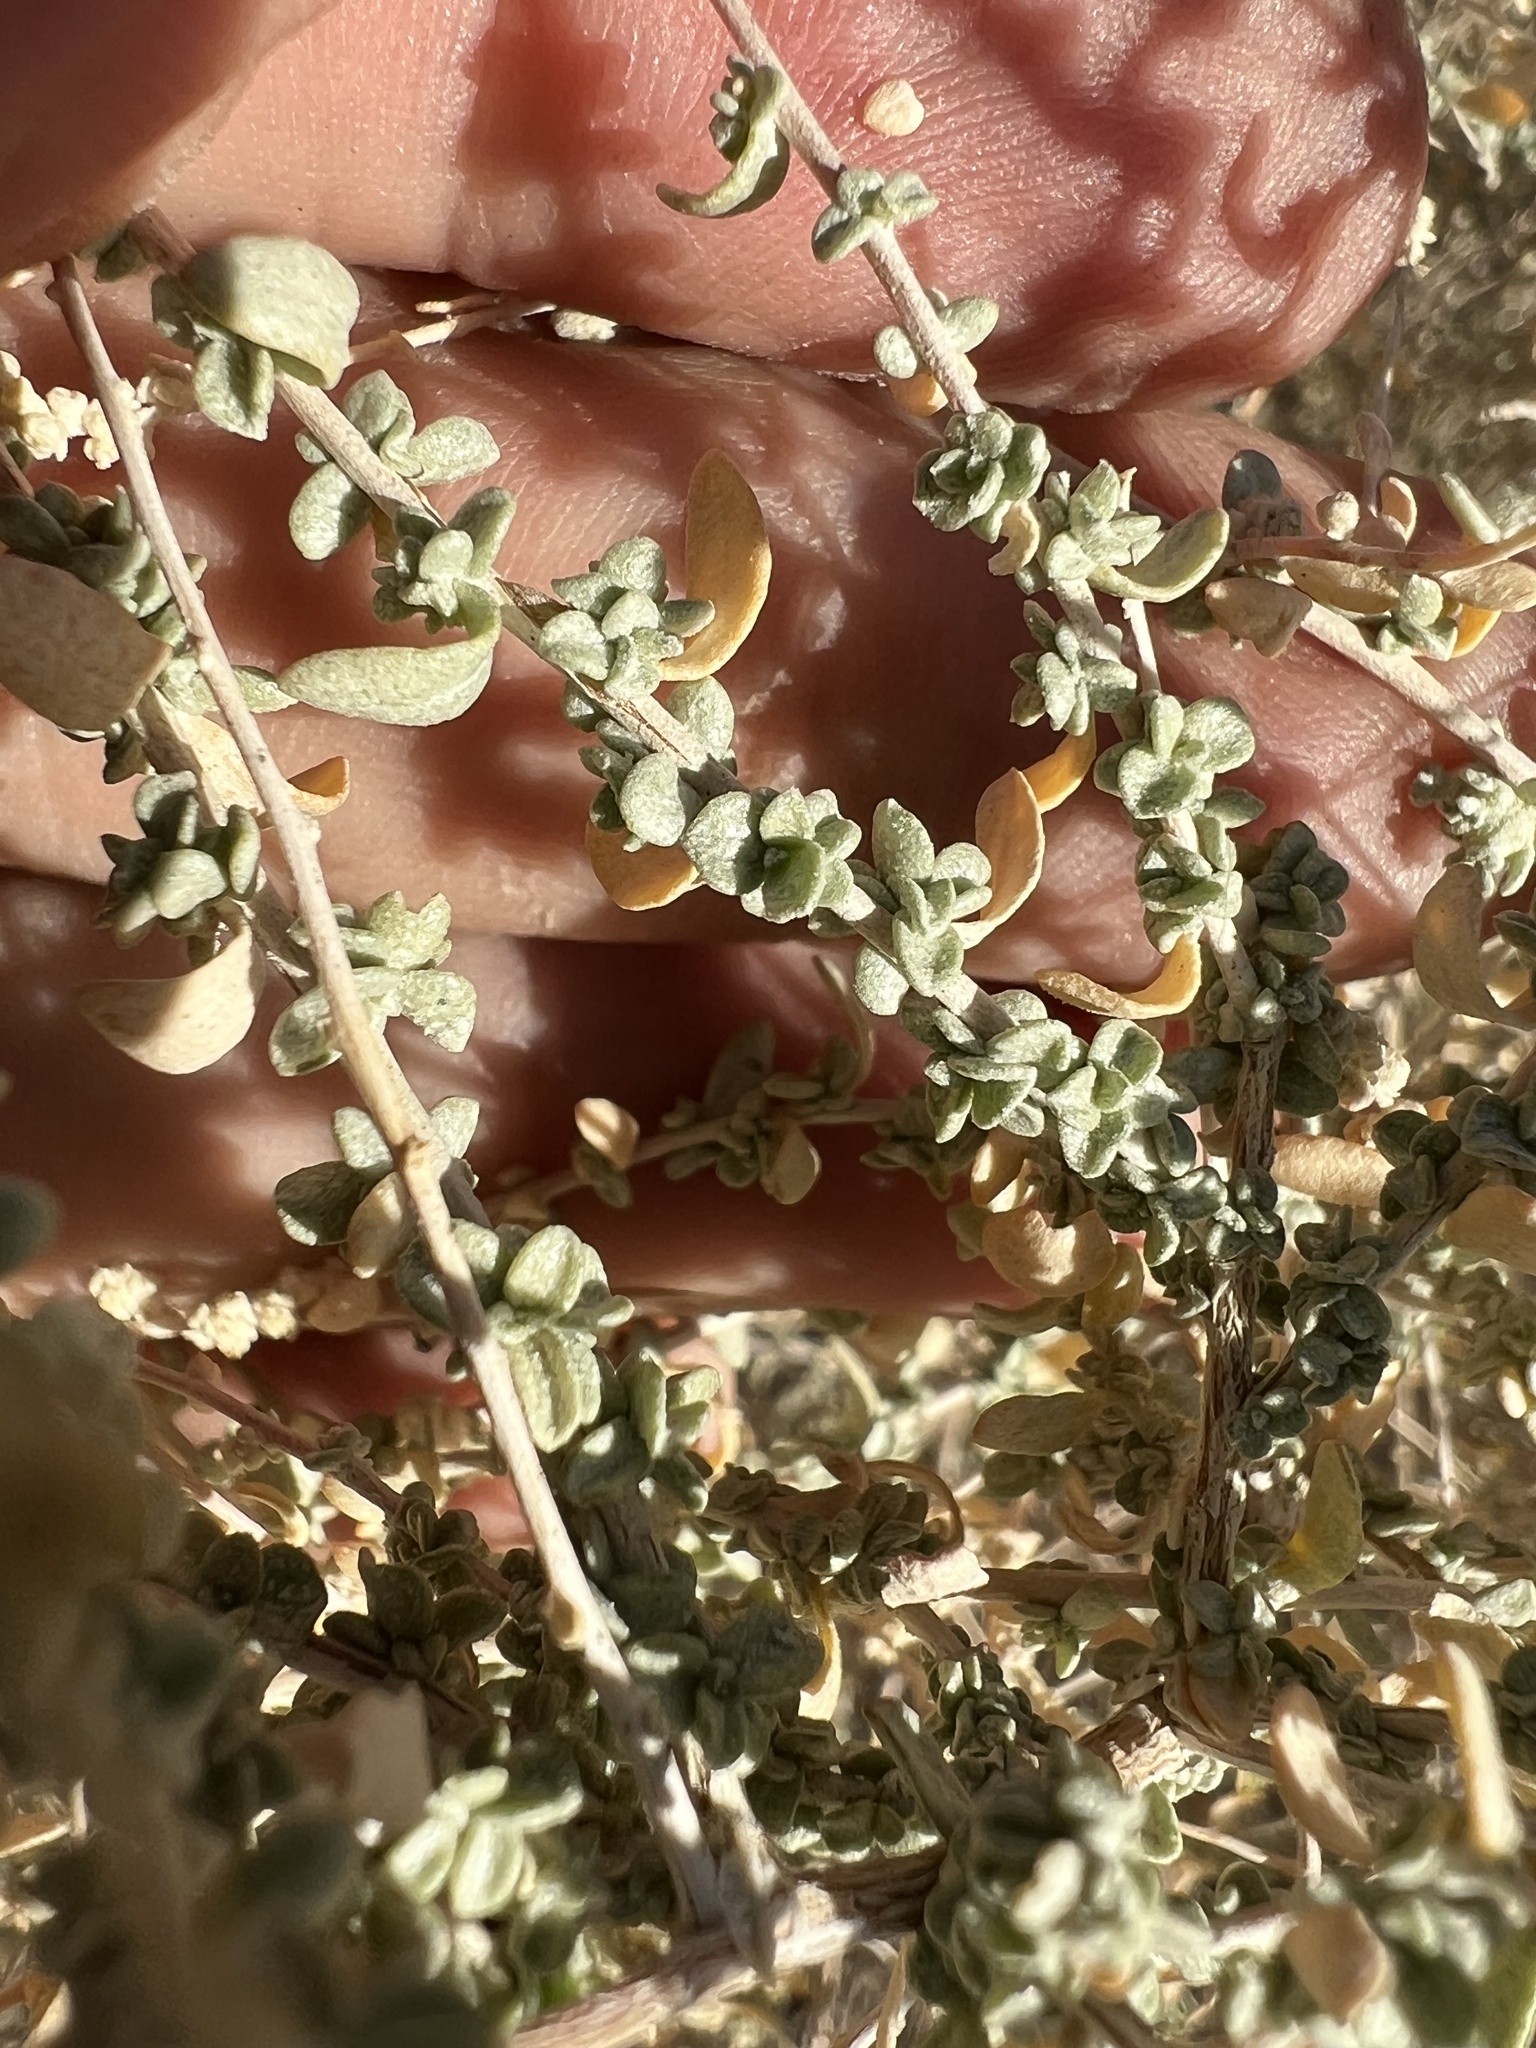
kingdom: Plantae
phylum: Tracheophyta
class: Magnoliopsida
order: Caryophyllales
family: Amaranthaceae
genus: Atriplex
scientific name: Atriplex polycarpa
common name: Desert saltbush
